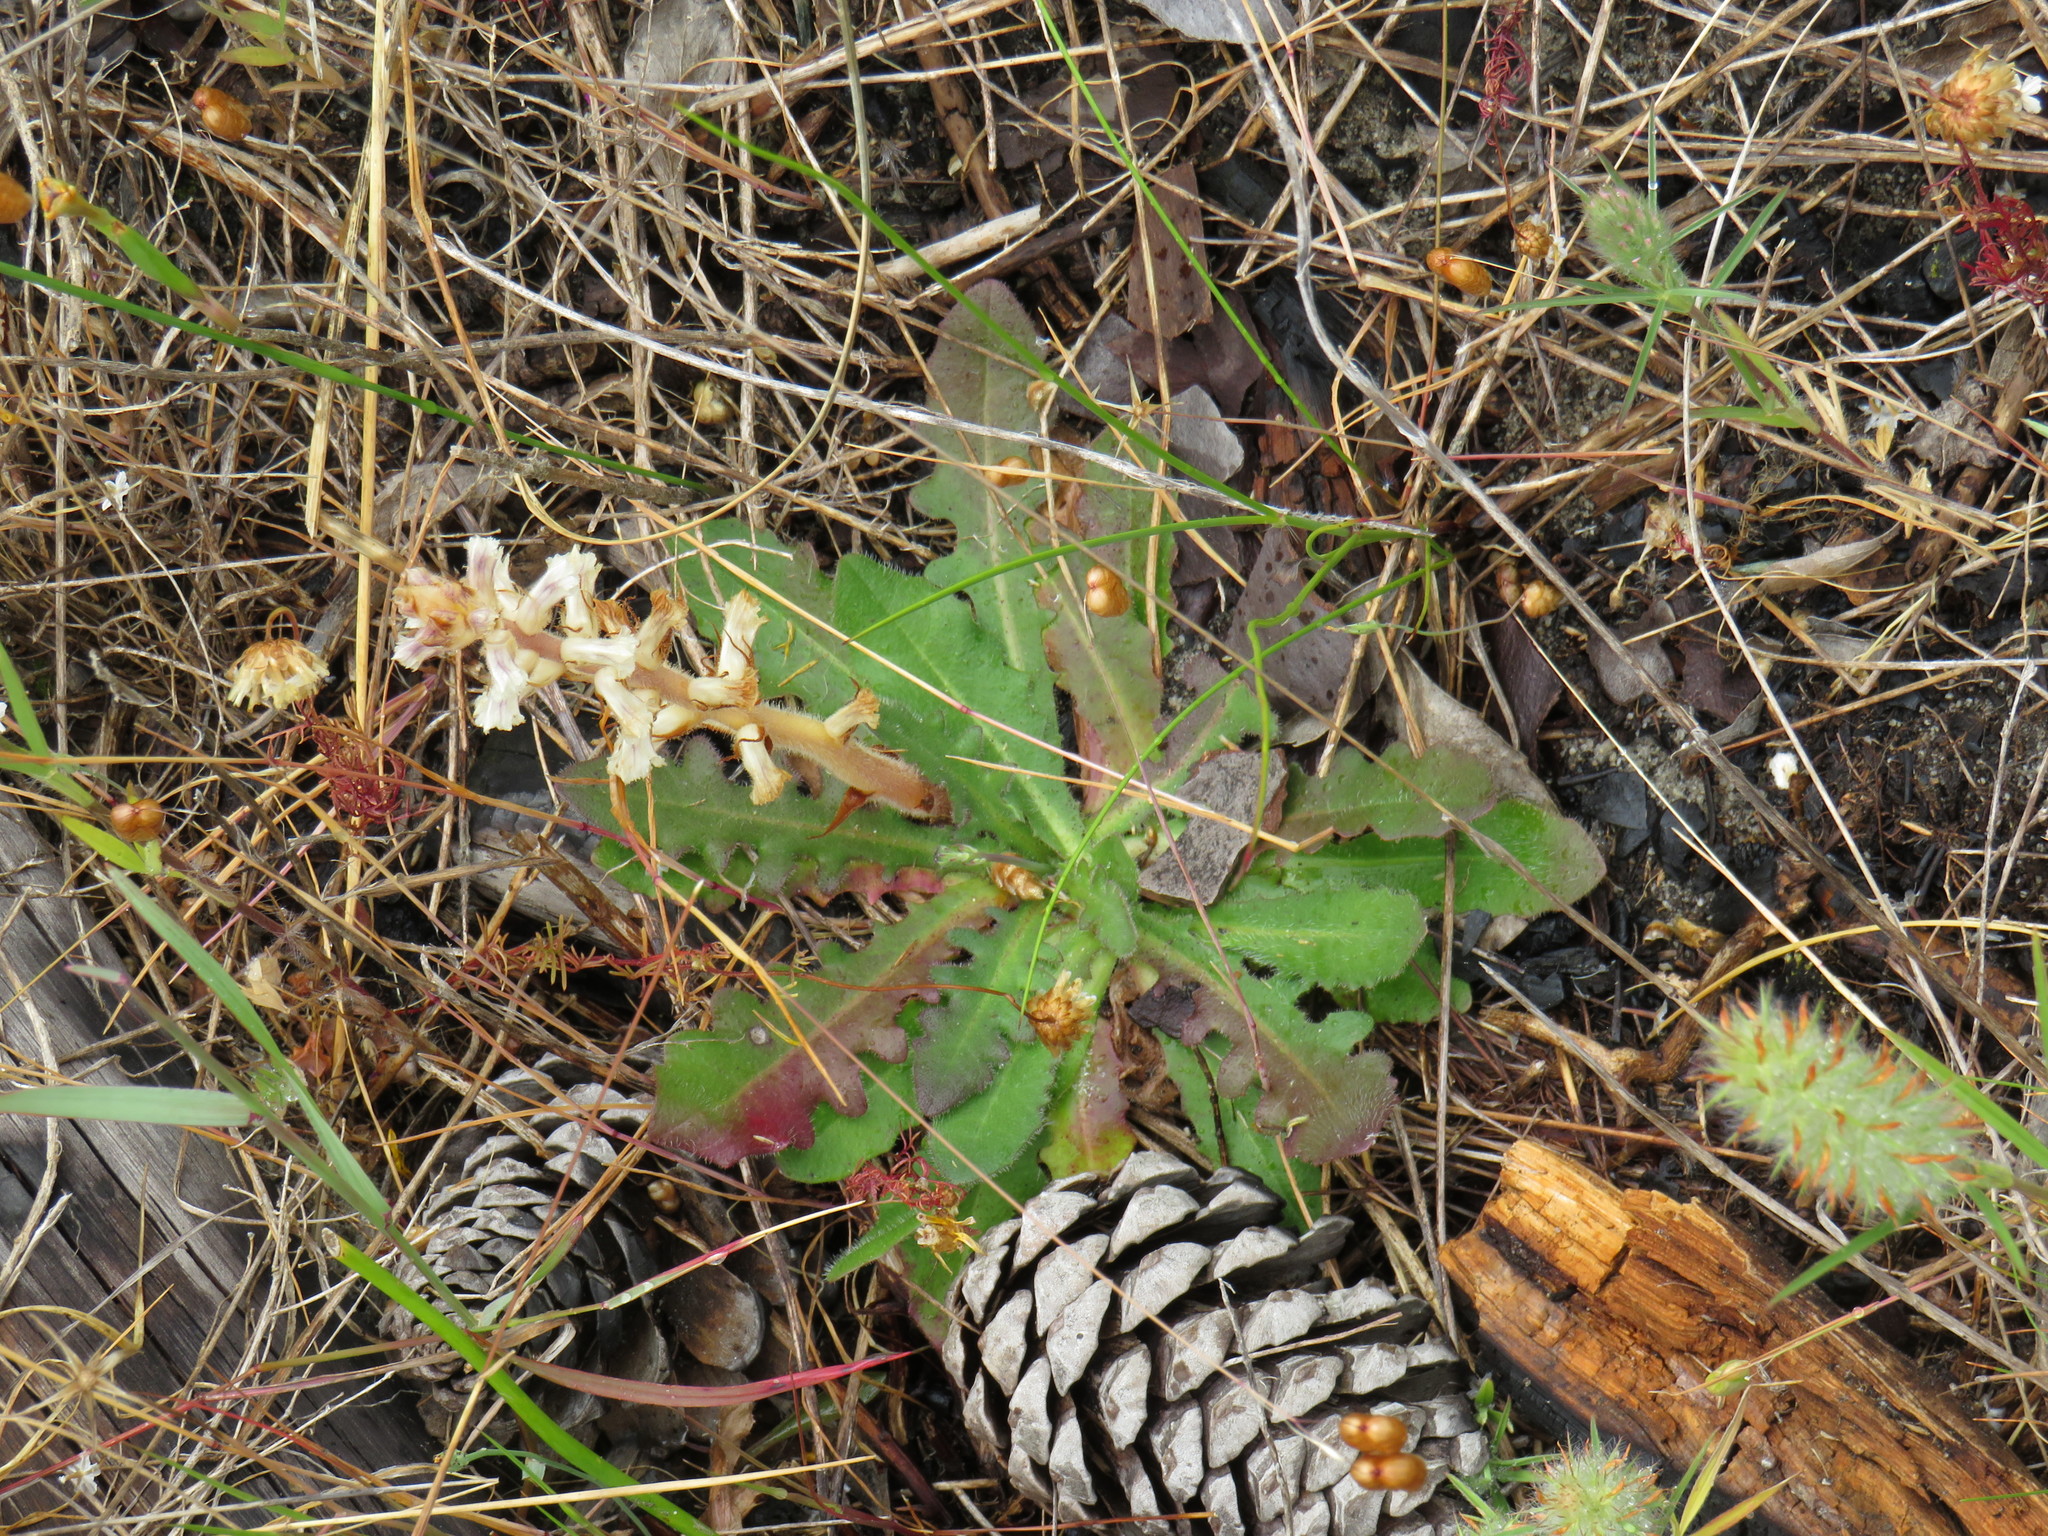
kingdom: Plantae
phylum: Tracheophyta
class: Magnoliopsida
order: Asterales
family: Asteraceae
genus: Hypochaeris
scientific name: Hypochaeris radicata
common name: Flatweed
